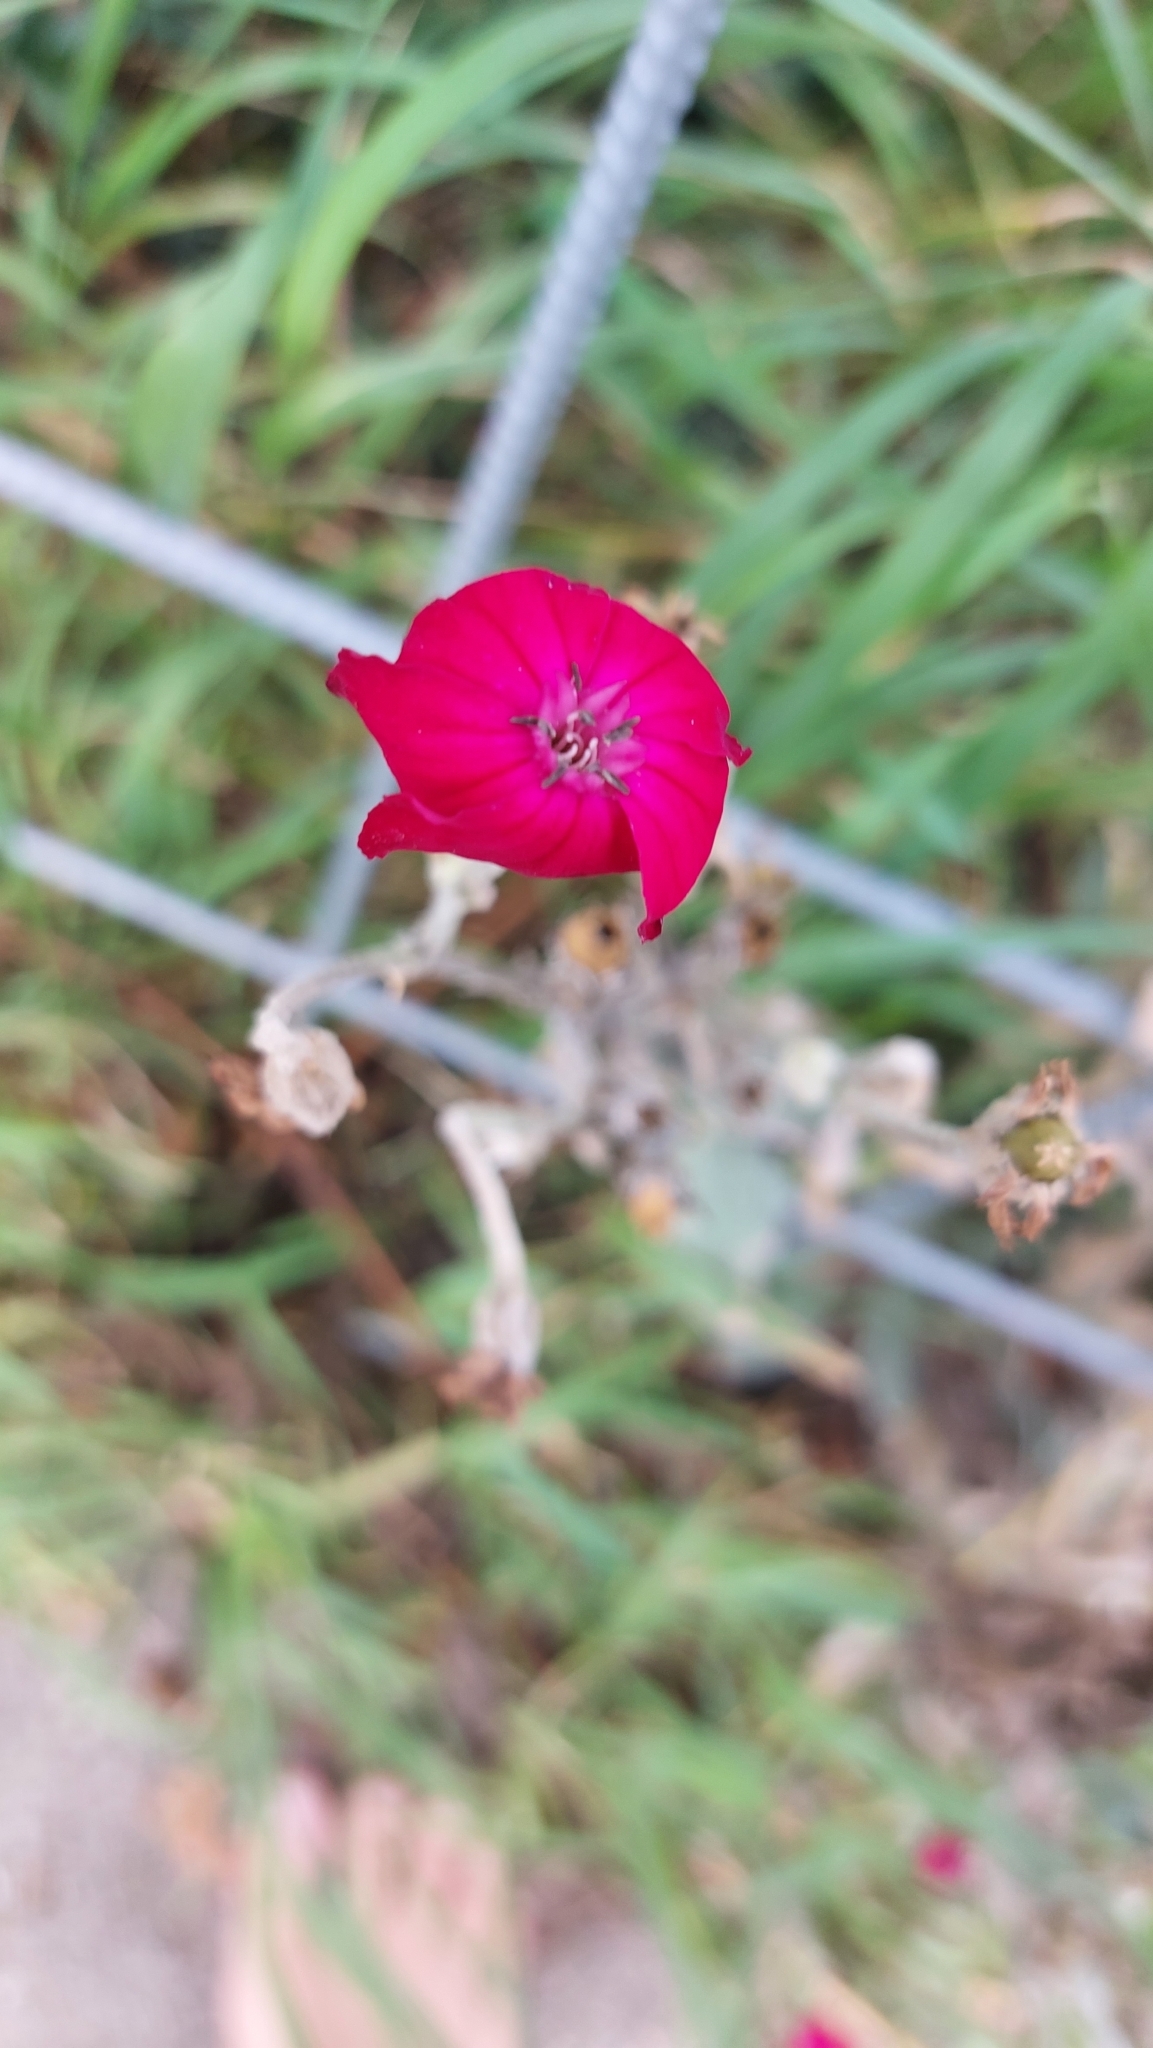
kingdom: Plantae
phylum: Tracheophyta
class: Magnoliopsida
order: Caryophyllales
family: Caryophyllaceae
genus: Silene
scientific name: Silene coronaria
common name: Rose campion
